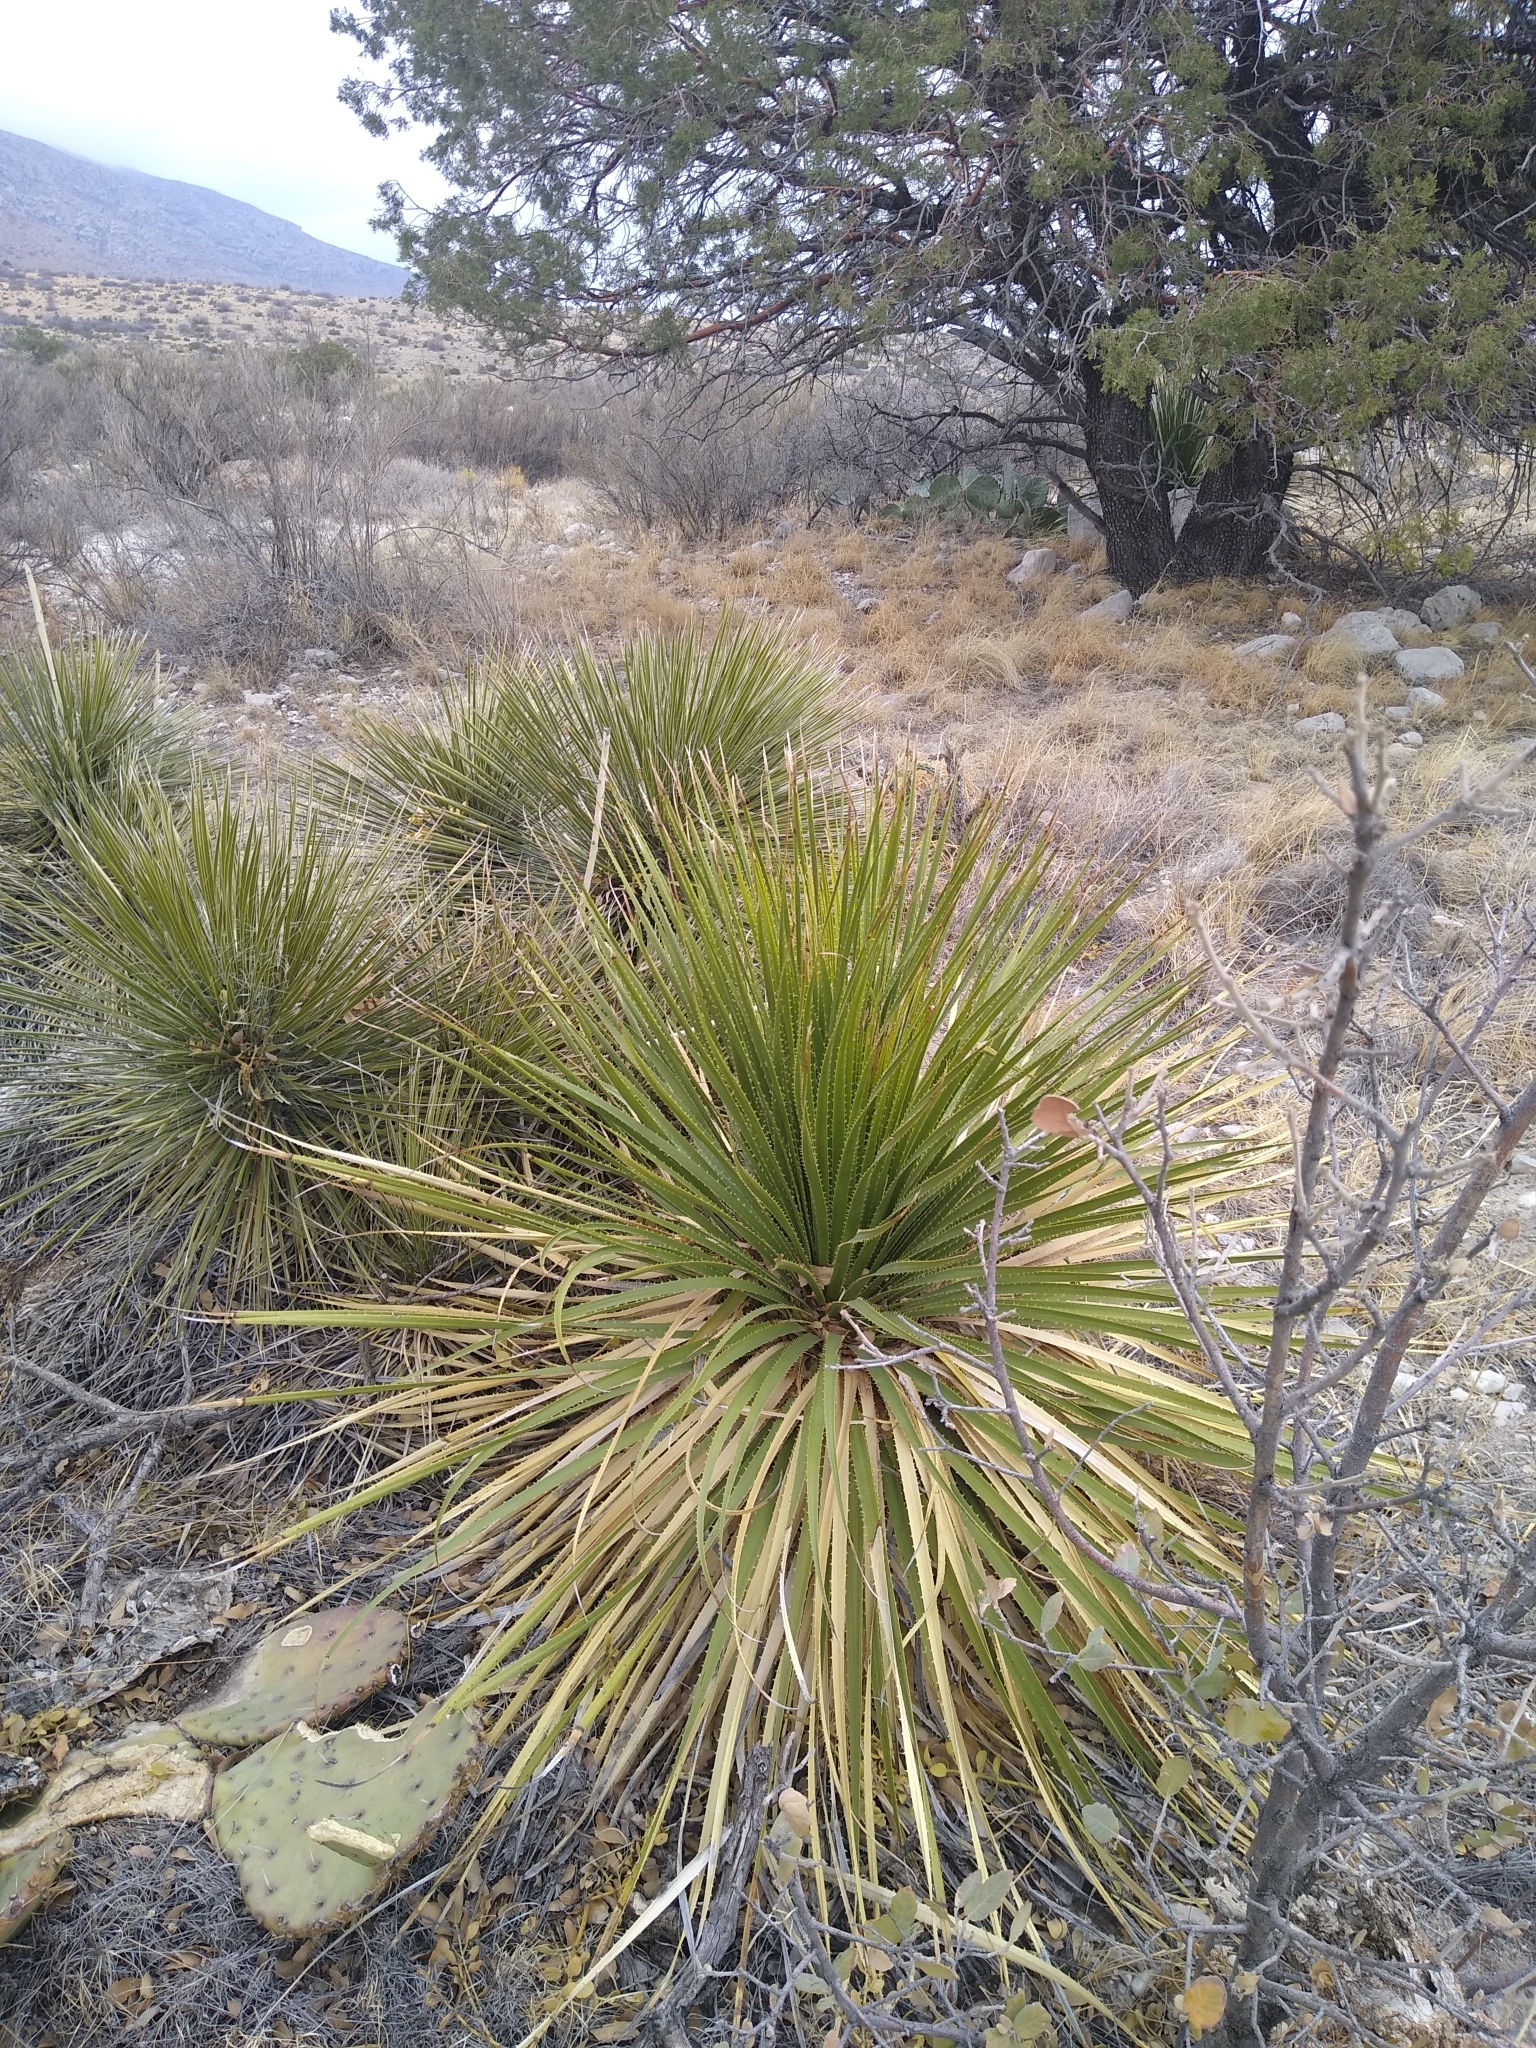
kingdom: Plantae
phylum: Tracheophyta
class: Liliopsida
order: Asparagales
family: Asparagaceae
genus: Dasylirion
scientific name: Dasylirion leiophyllum
